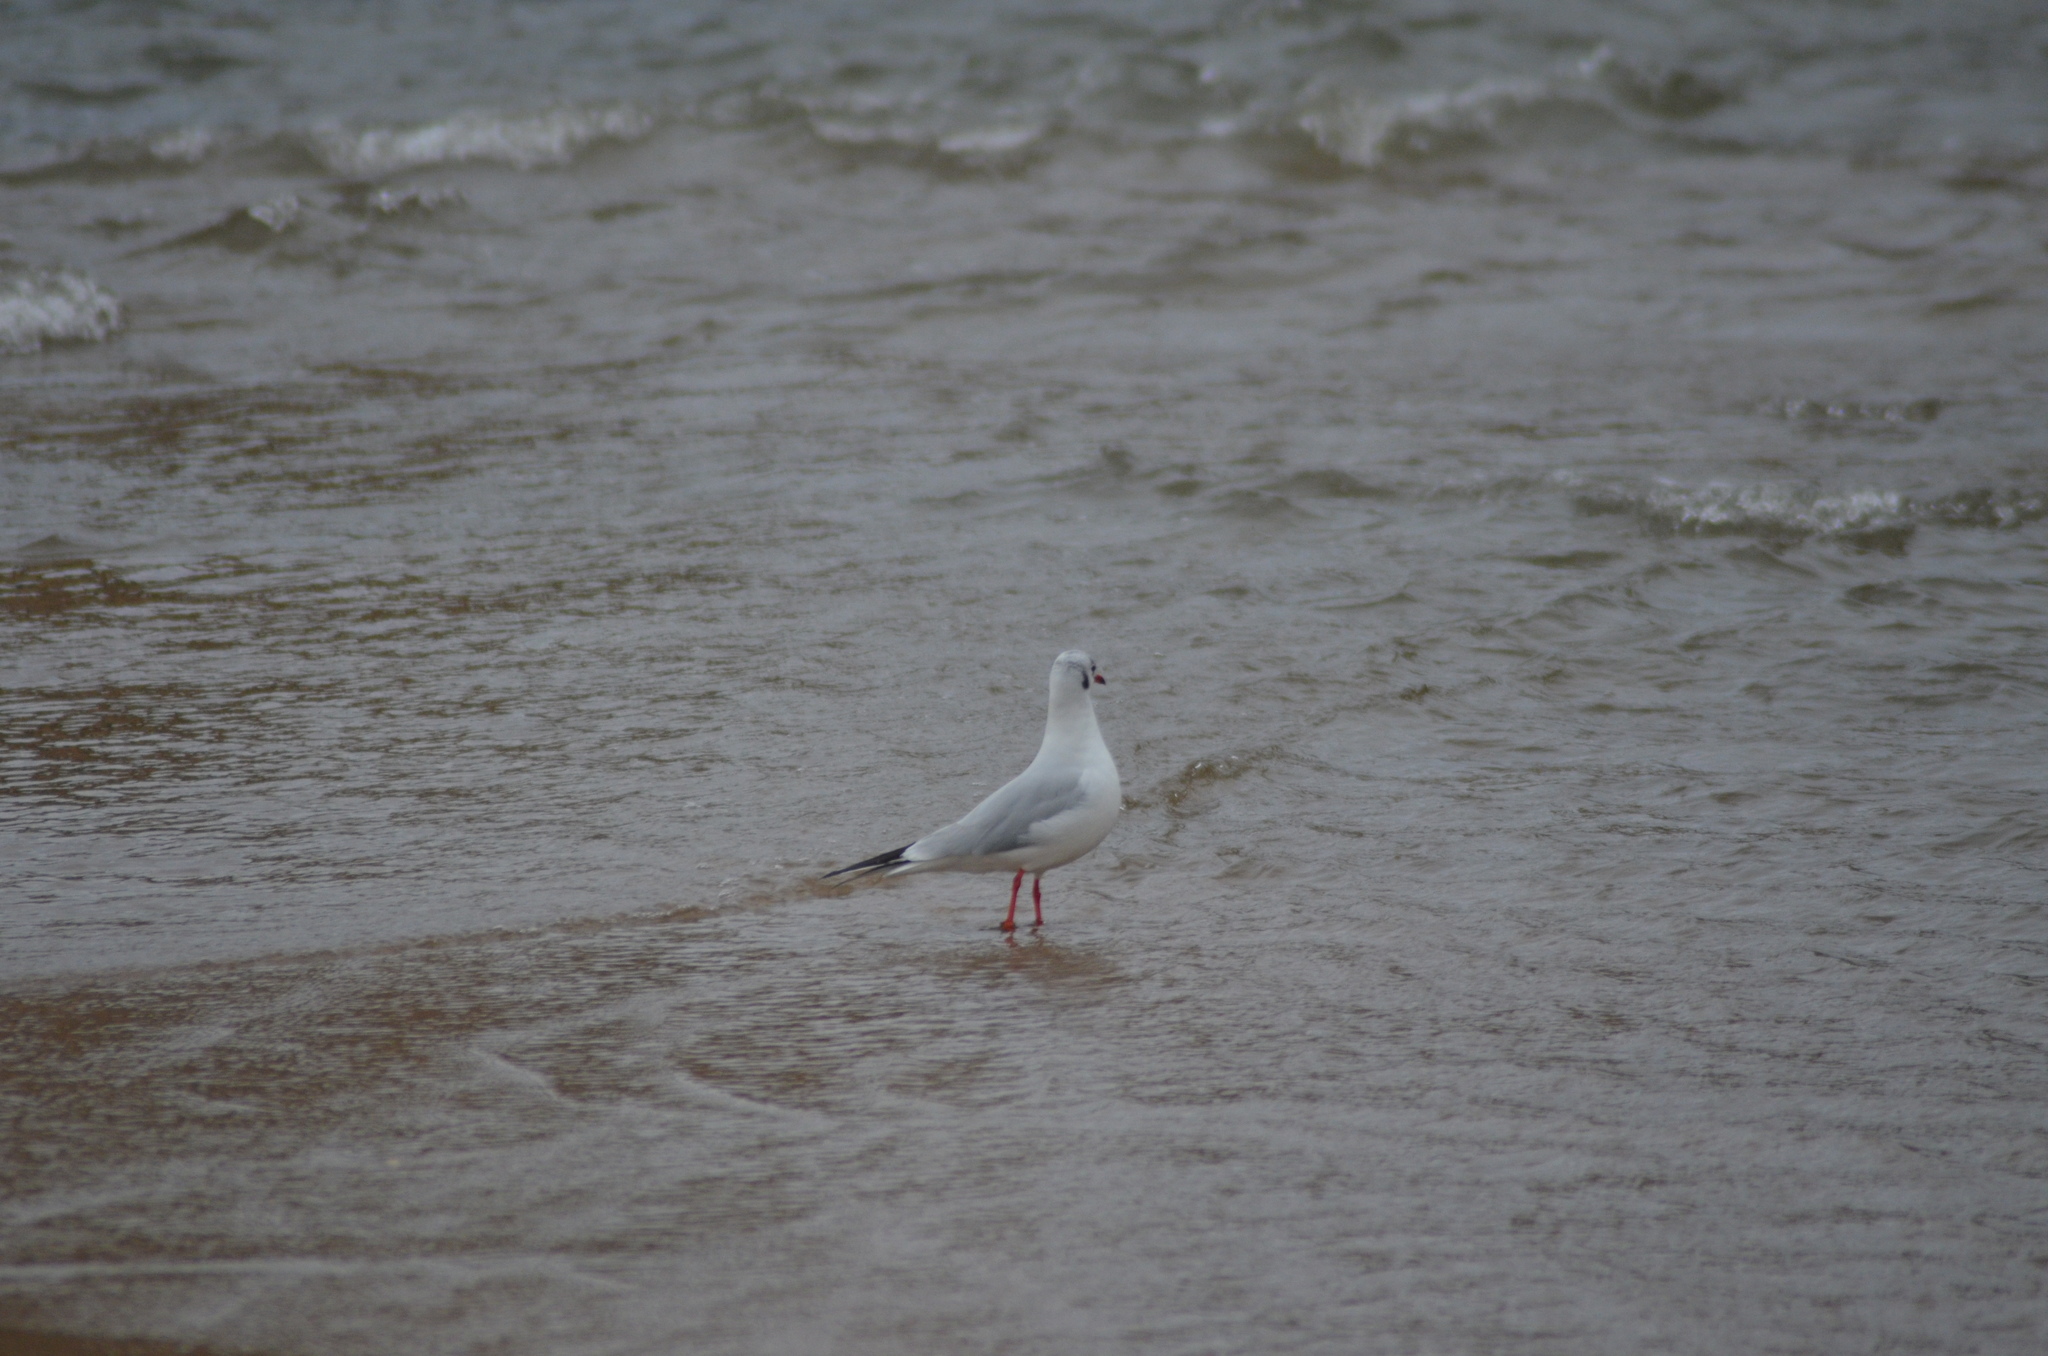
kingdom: Animalia
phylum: Chordata
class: Aves
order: Charadriiformes
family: Laridae
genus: Chroicocephalus
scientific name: Chroicocephalus ridibundus
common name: Black-headed gull
